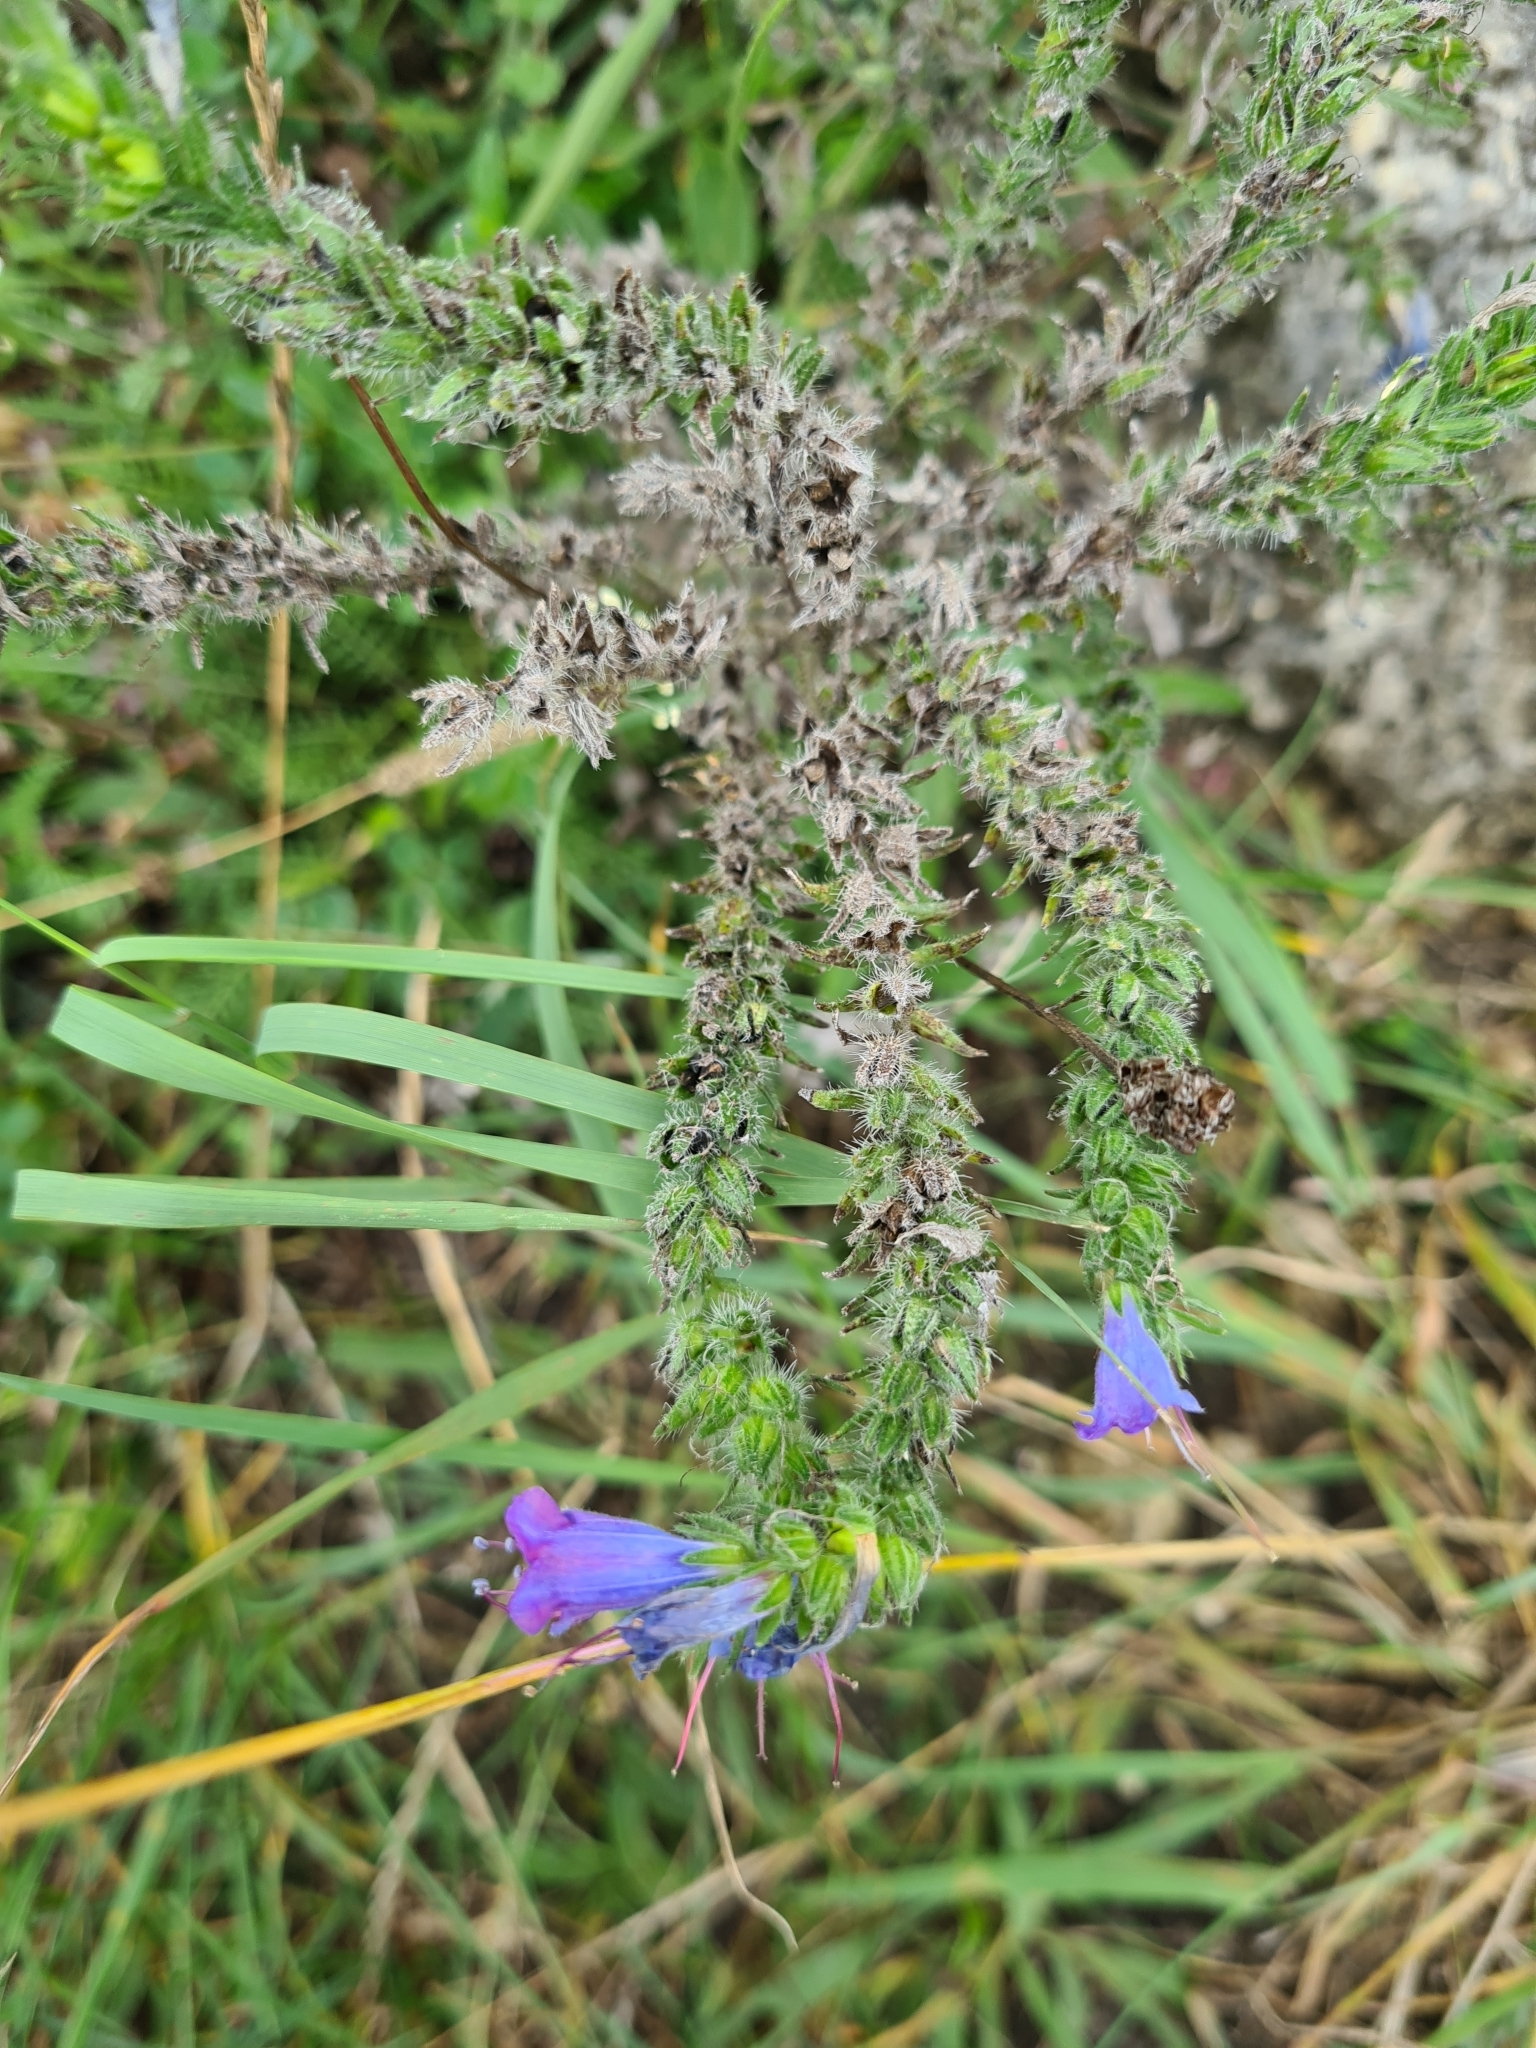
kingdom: Plantae
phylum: Tracheophyta
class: Magnoliopsida
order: Boraginales
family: Boraginaceae
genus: Echium
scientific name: Echium vulgare
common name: Common viper's bugloss
